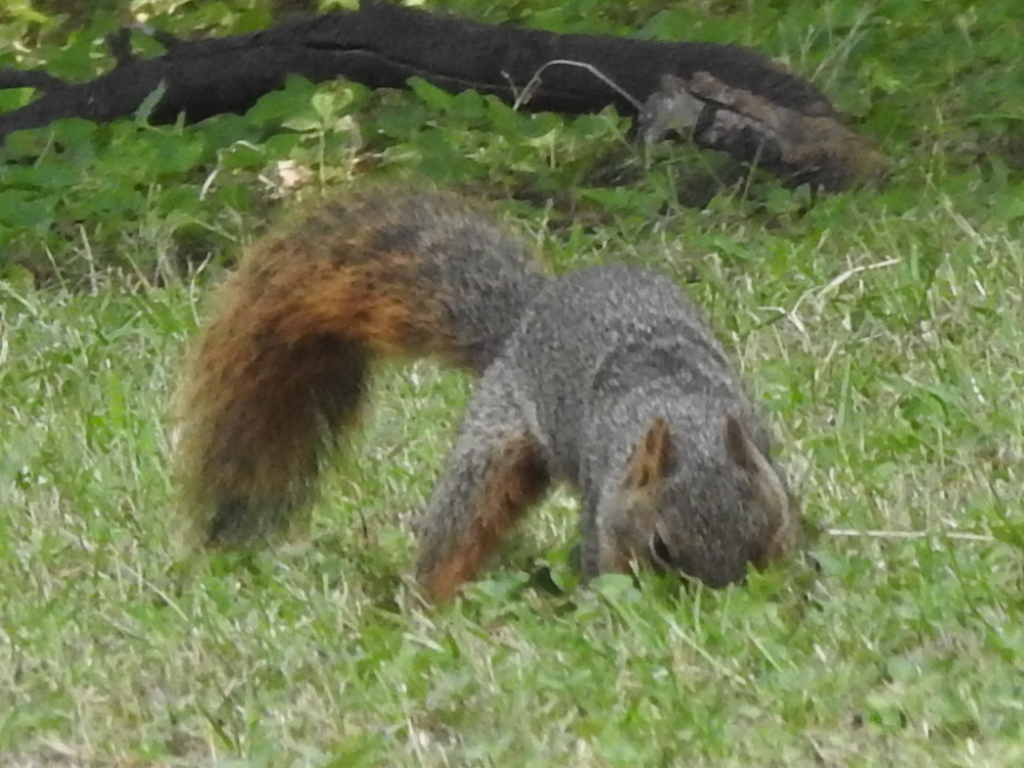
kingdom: Animalia
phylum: Chordata
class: Mammalia
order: Rodentia
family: Sciuridae
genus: Sciurus
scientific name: Sciurus niger
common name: Fox squirrel
